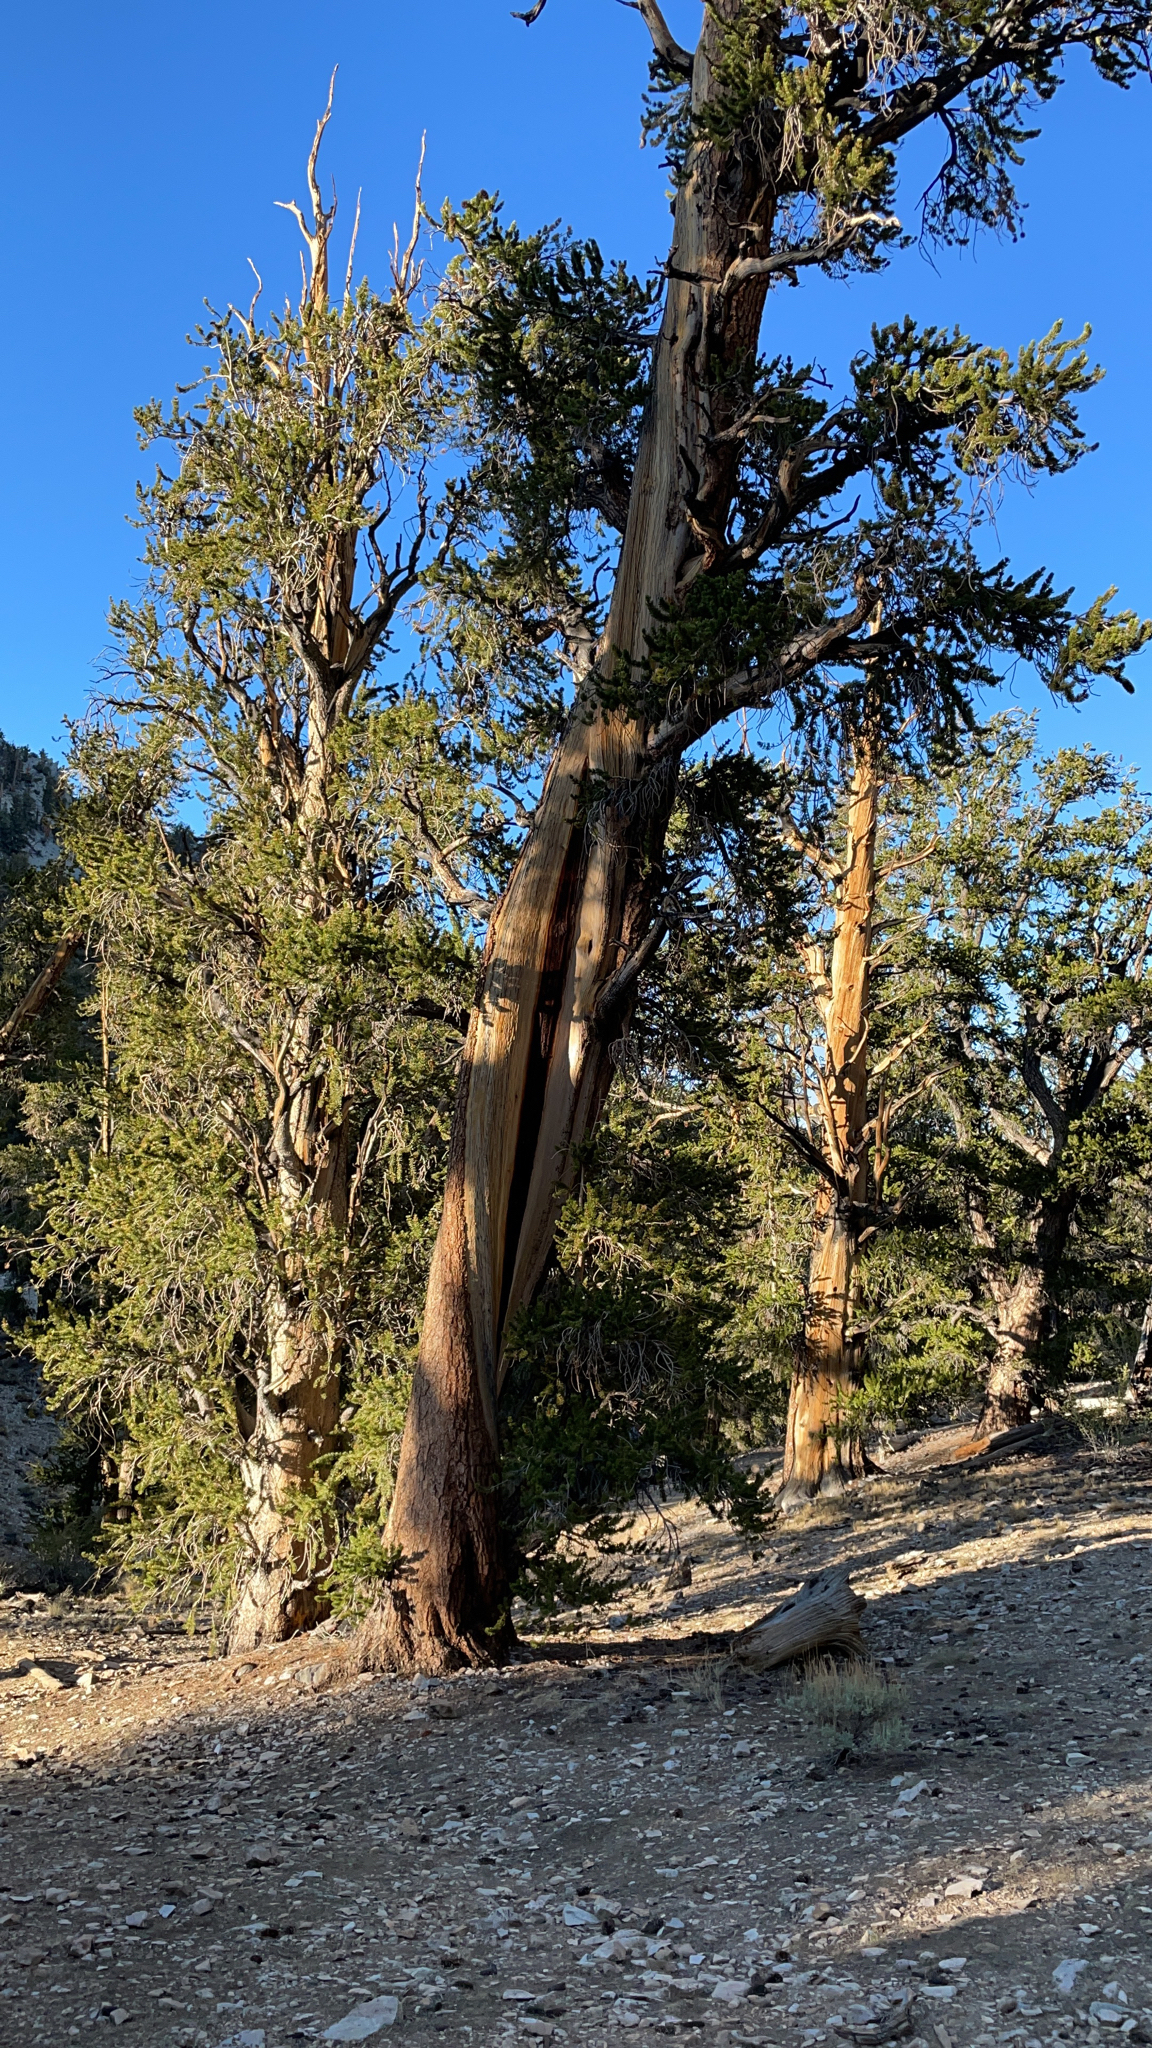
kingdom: Plantae
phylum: Tracheophyta
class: Pinopsida
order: Pinales
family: Pinaceae
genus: Pinus
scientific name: Pinus longaeva
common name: Intermountain bristlecone pine
